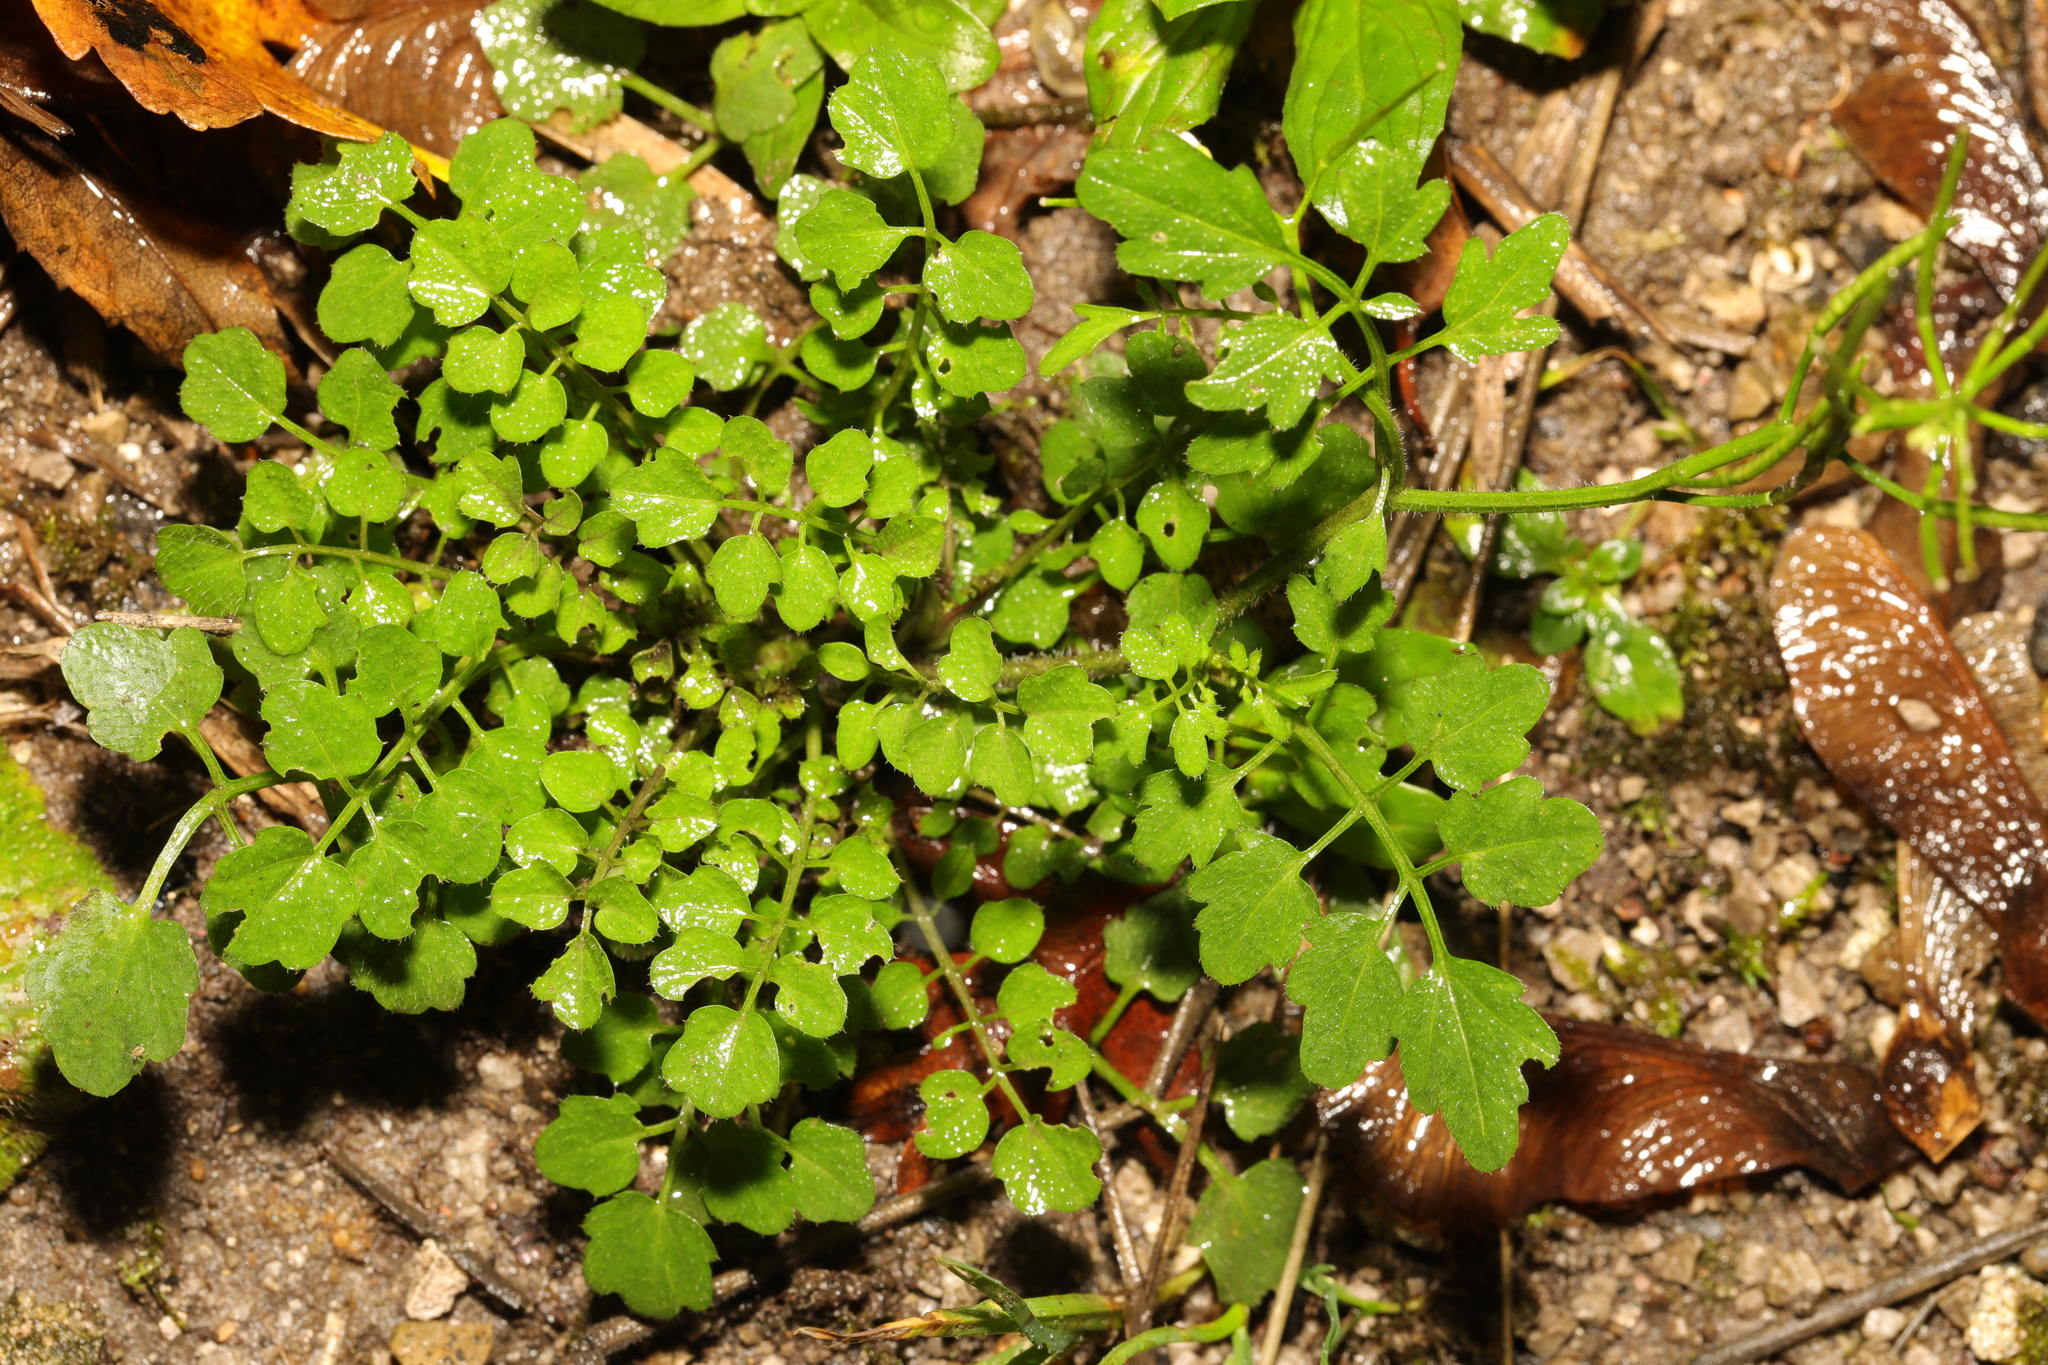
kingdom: Plantae
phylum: Tracheophyta
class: Magnoliopsida
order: Brassicales
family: Brassicaceae
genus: Cardamine
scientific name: Cardamine flexuosa
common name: Woodland bittercress
